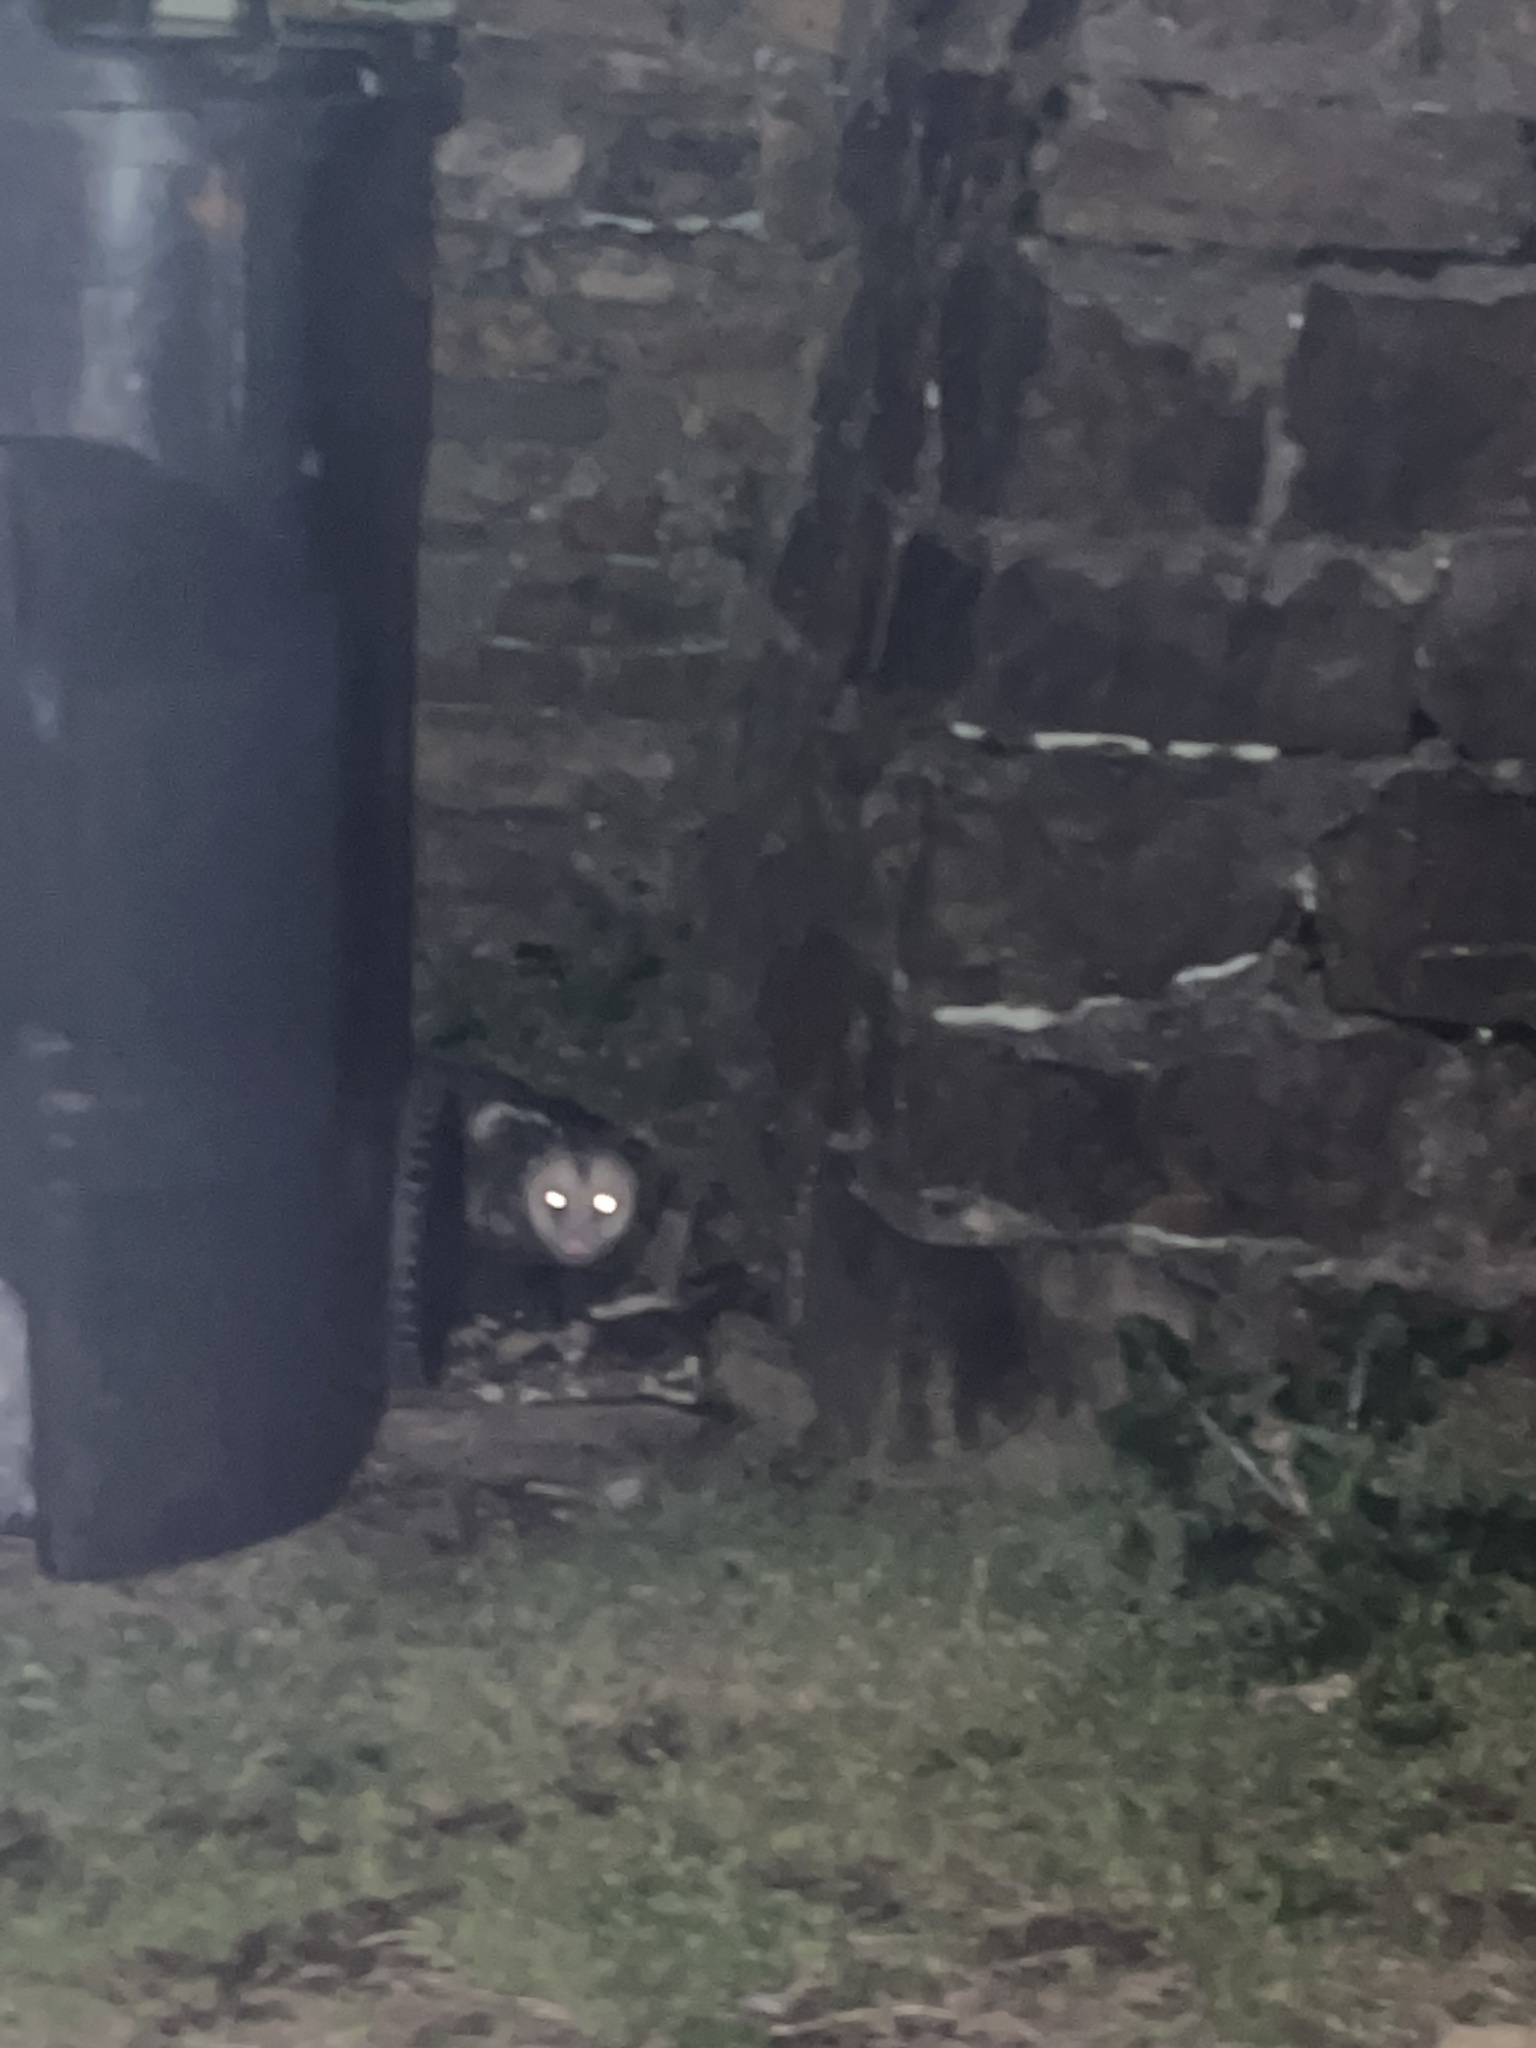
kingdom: Animalia
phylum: Chordata
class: Mammalia
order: Didelphimorphia
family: Didelphidae
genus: Didelphis
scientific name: Didelphis virginiana
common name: Virginia opossum
